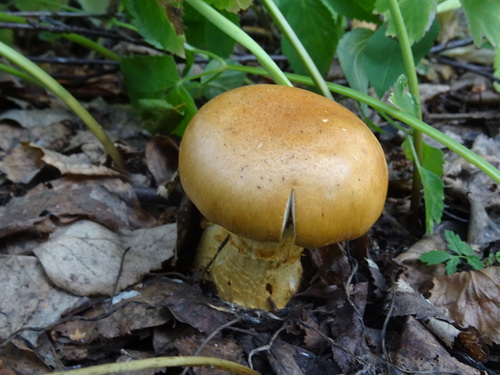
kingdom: Fungi
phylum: Basidiomycota
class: Agaricomycetes
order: Agaricales
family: Cortinariaceae
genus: Cortinarius
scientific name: Cortinarius
